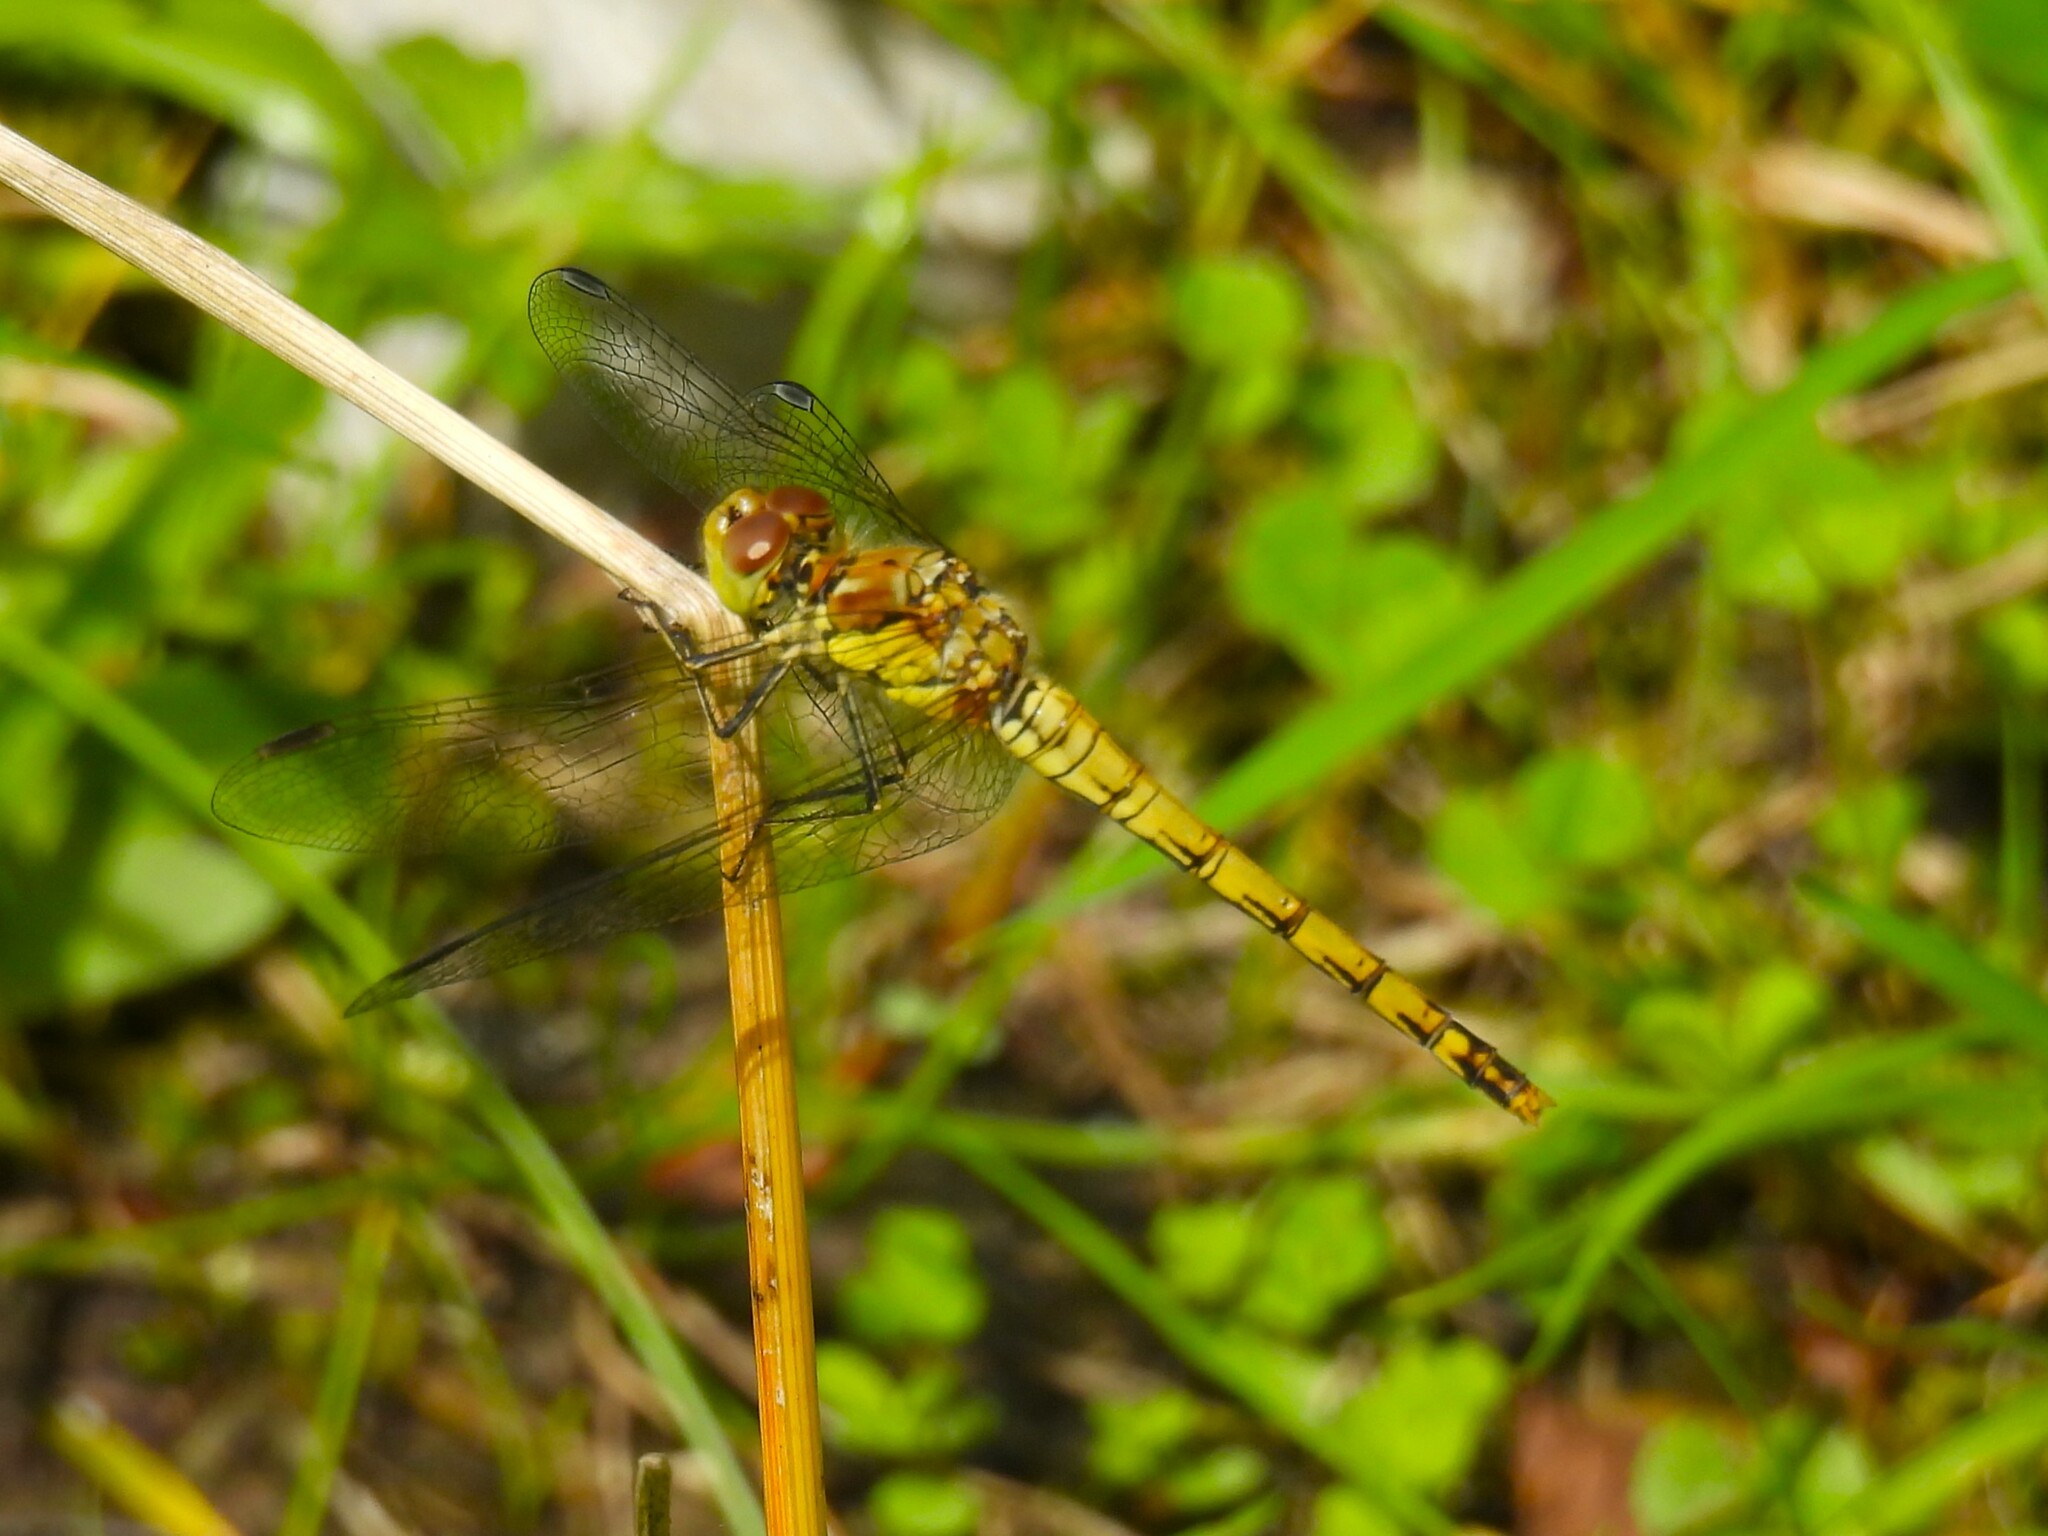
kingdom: Animalia
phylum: Arthropoda
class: Insecta
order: Odonata
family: Libellulidae
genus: Sympetrum
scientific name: Sympetrum striolatum
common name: Common darter
